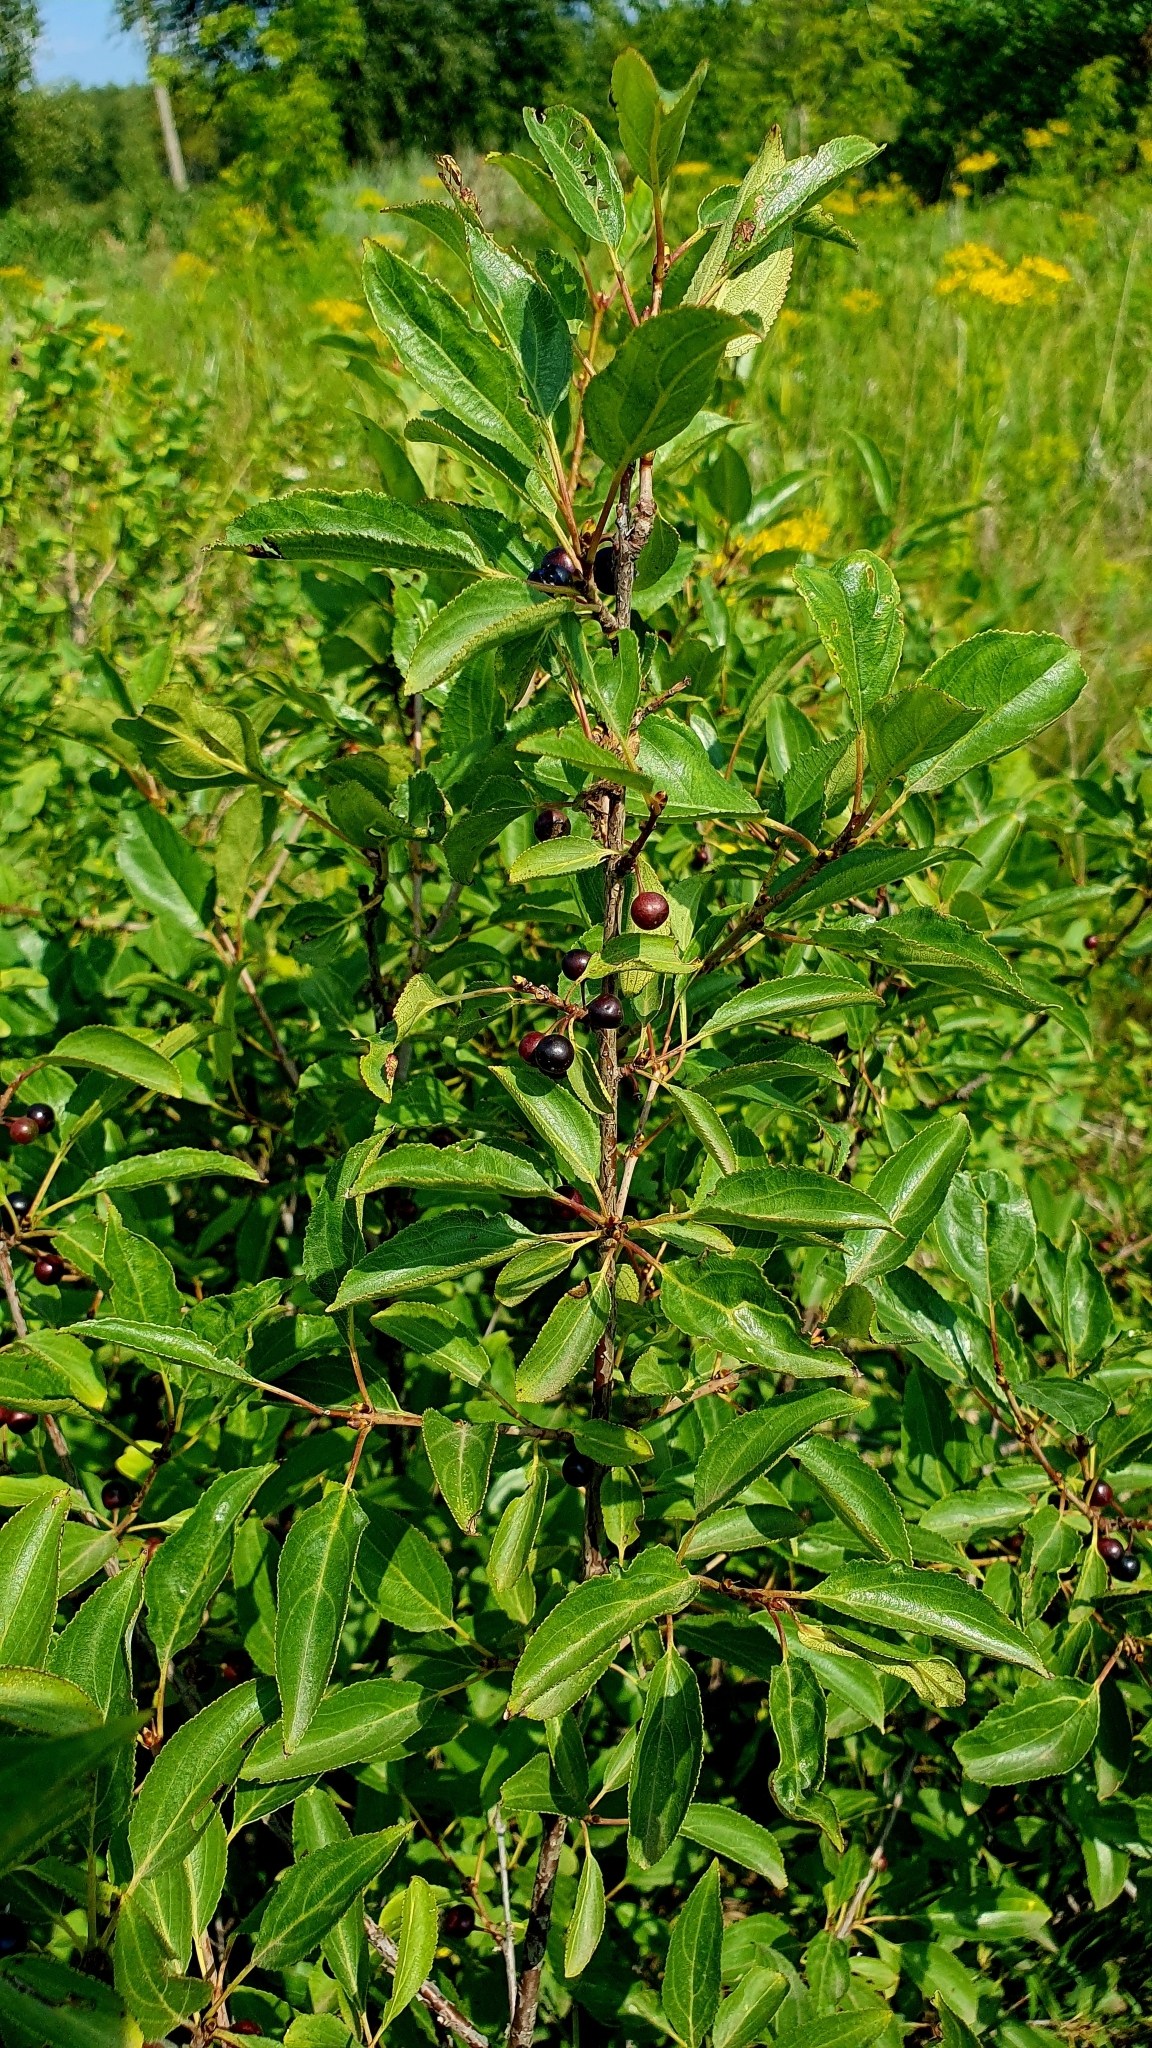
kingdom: Plantae
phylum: Tracheophyta
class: Magnoliopsida
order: Rosales
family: Rhamnaceae
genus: Rhamnus
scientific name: Rhamnus cathartica
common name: Common buckthorn
